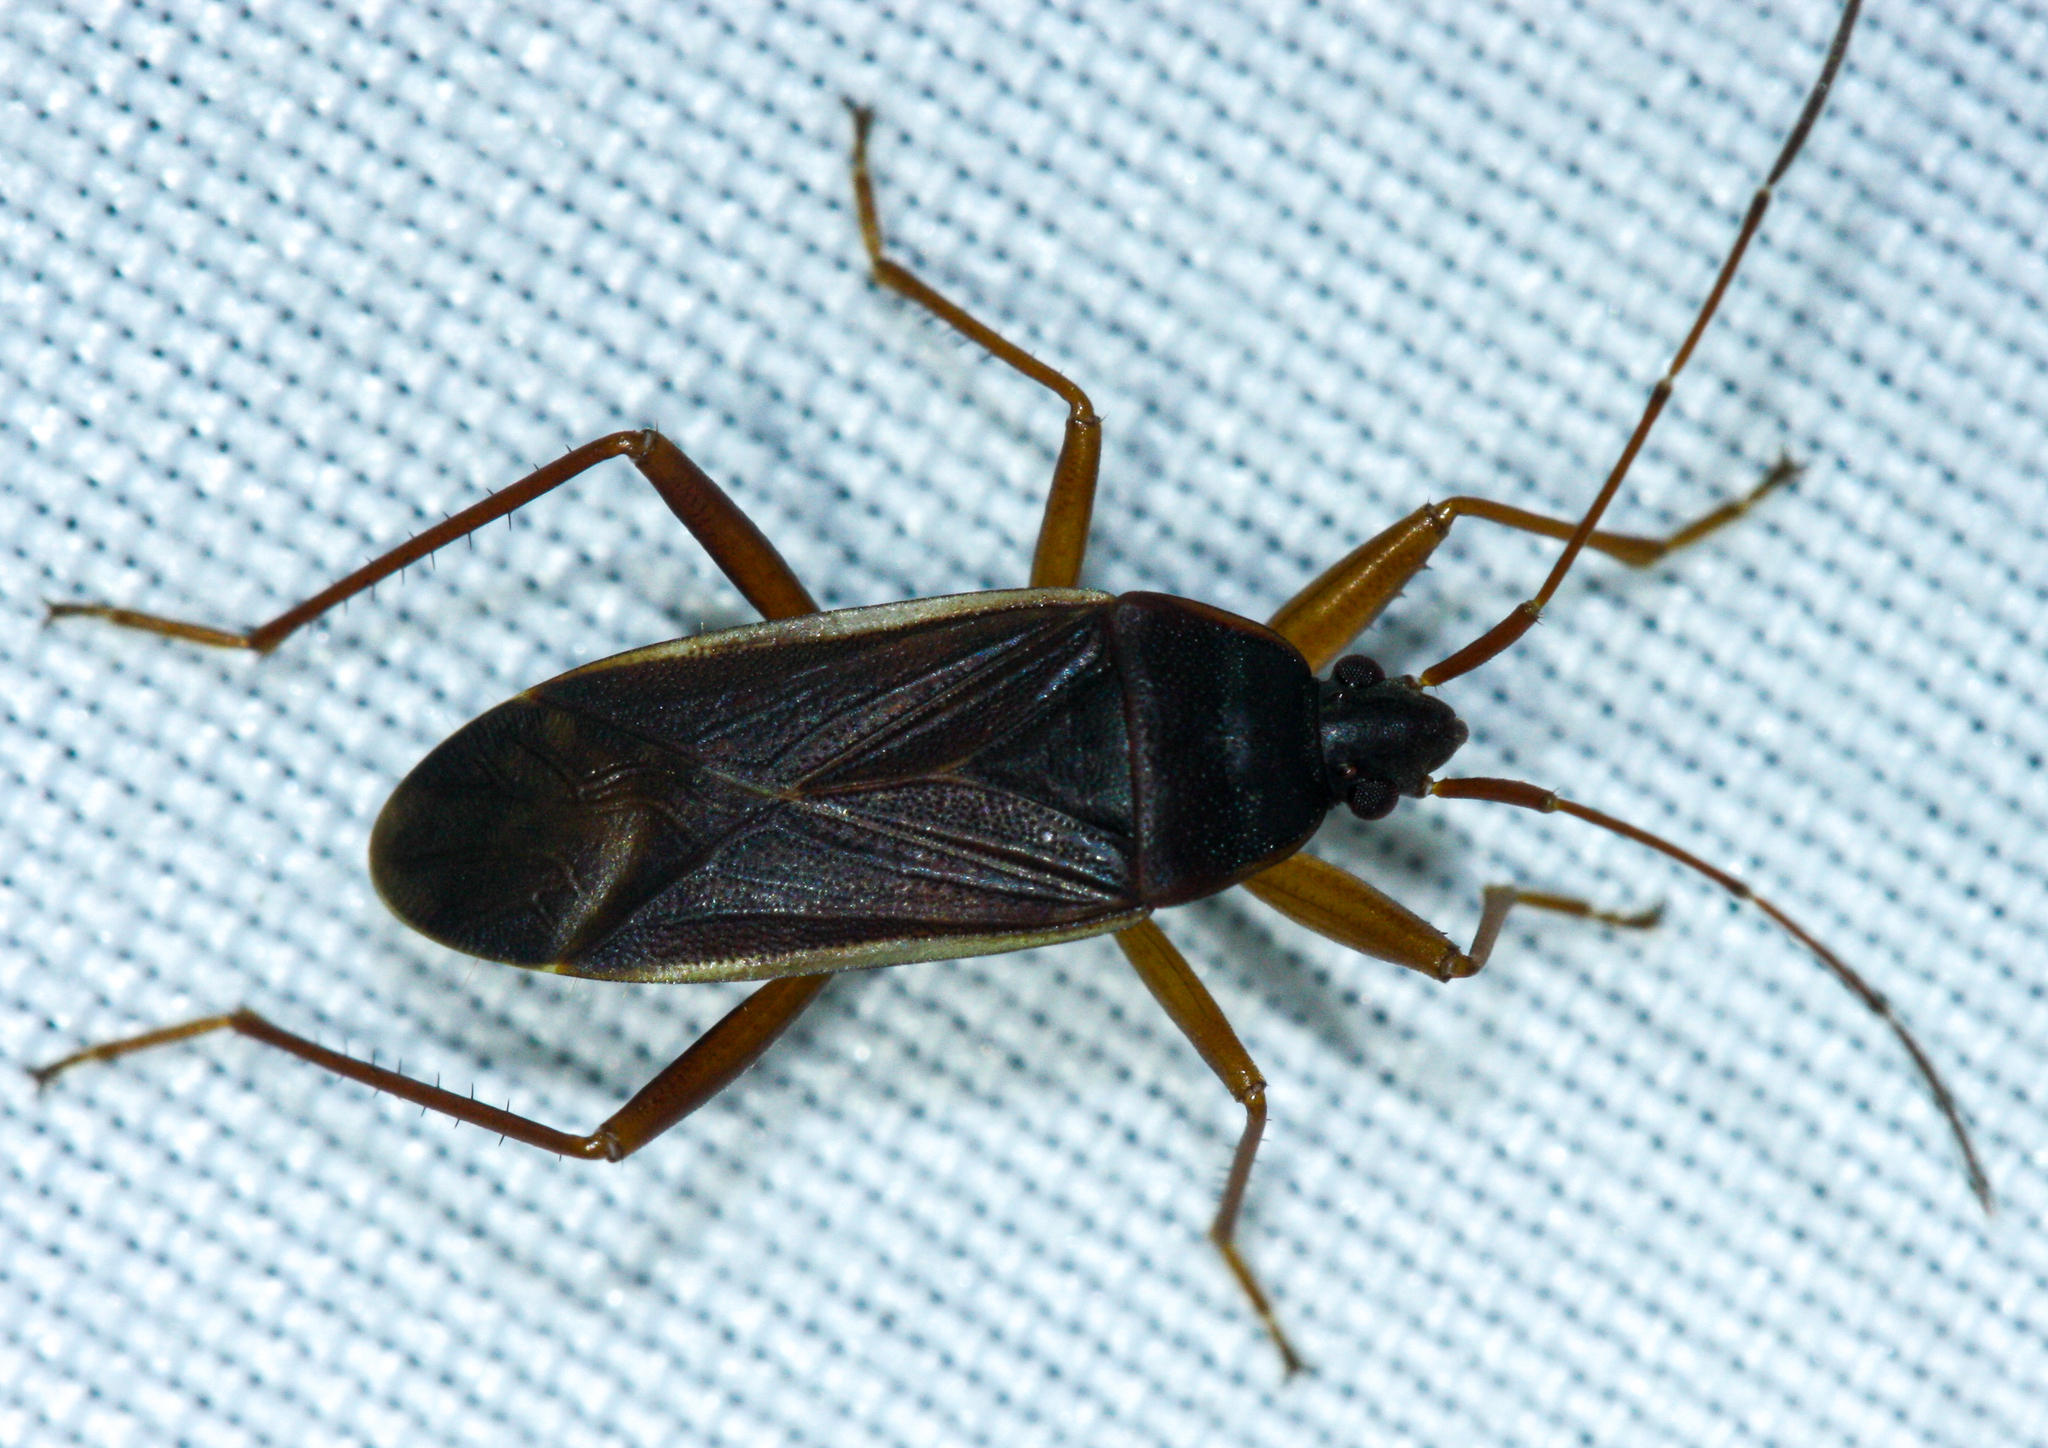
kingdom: Animalia
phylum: Arthropoda
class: Insecta
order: Hemiptera
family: Rhyparochromidae
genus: Balboa
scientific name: Balboa ampliata
